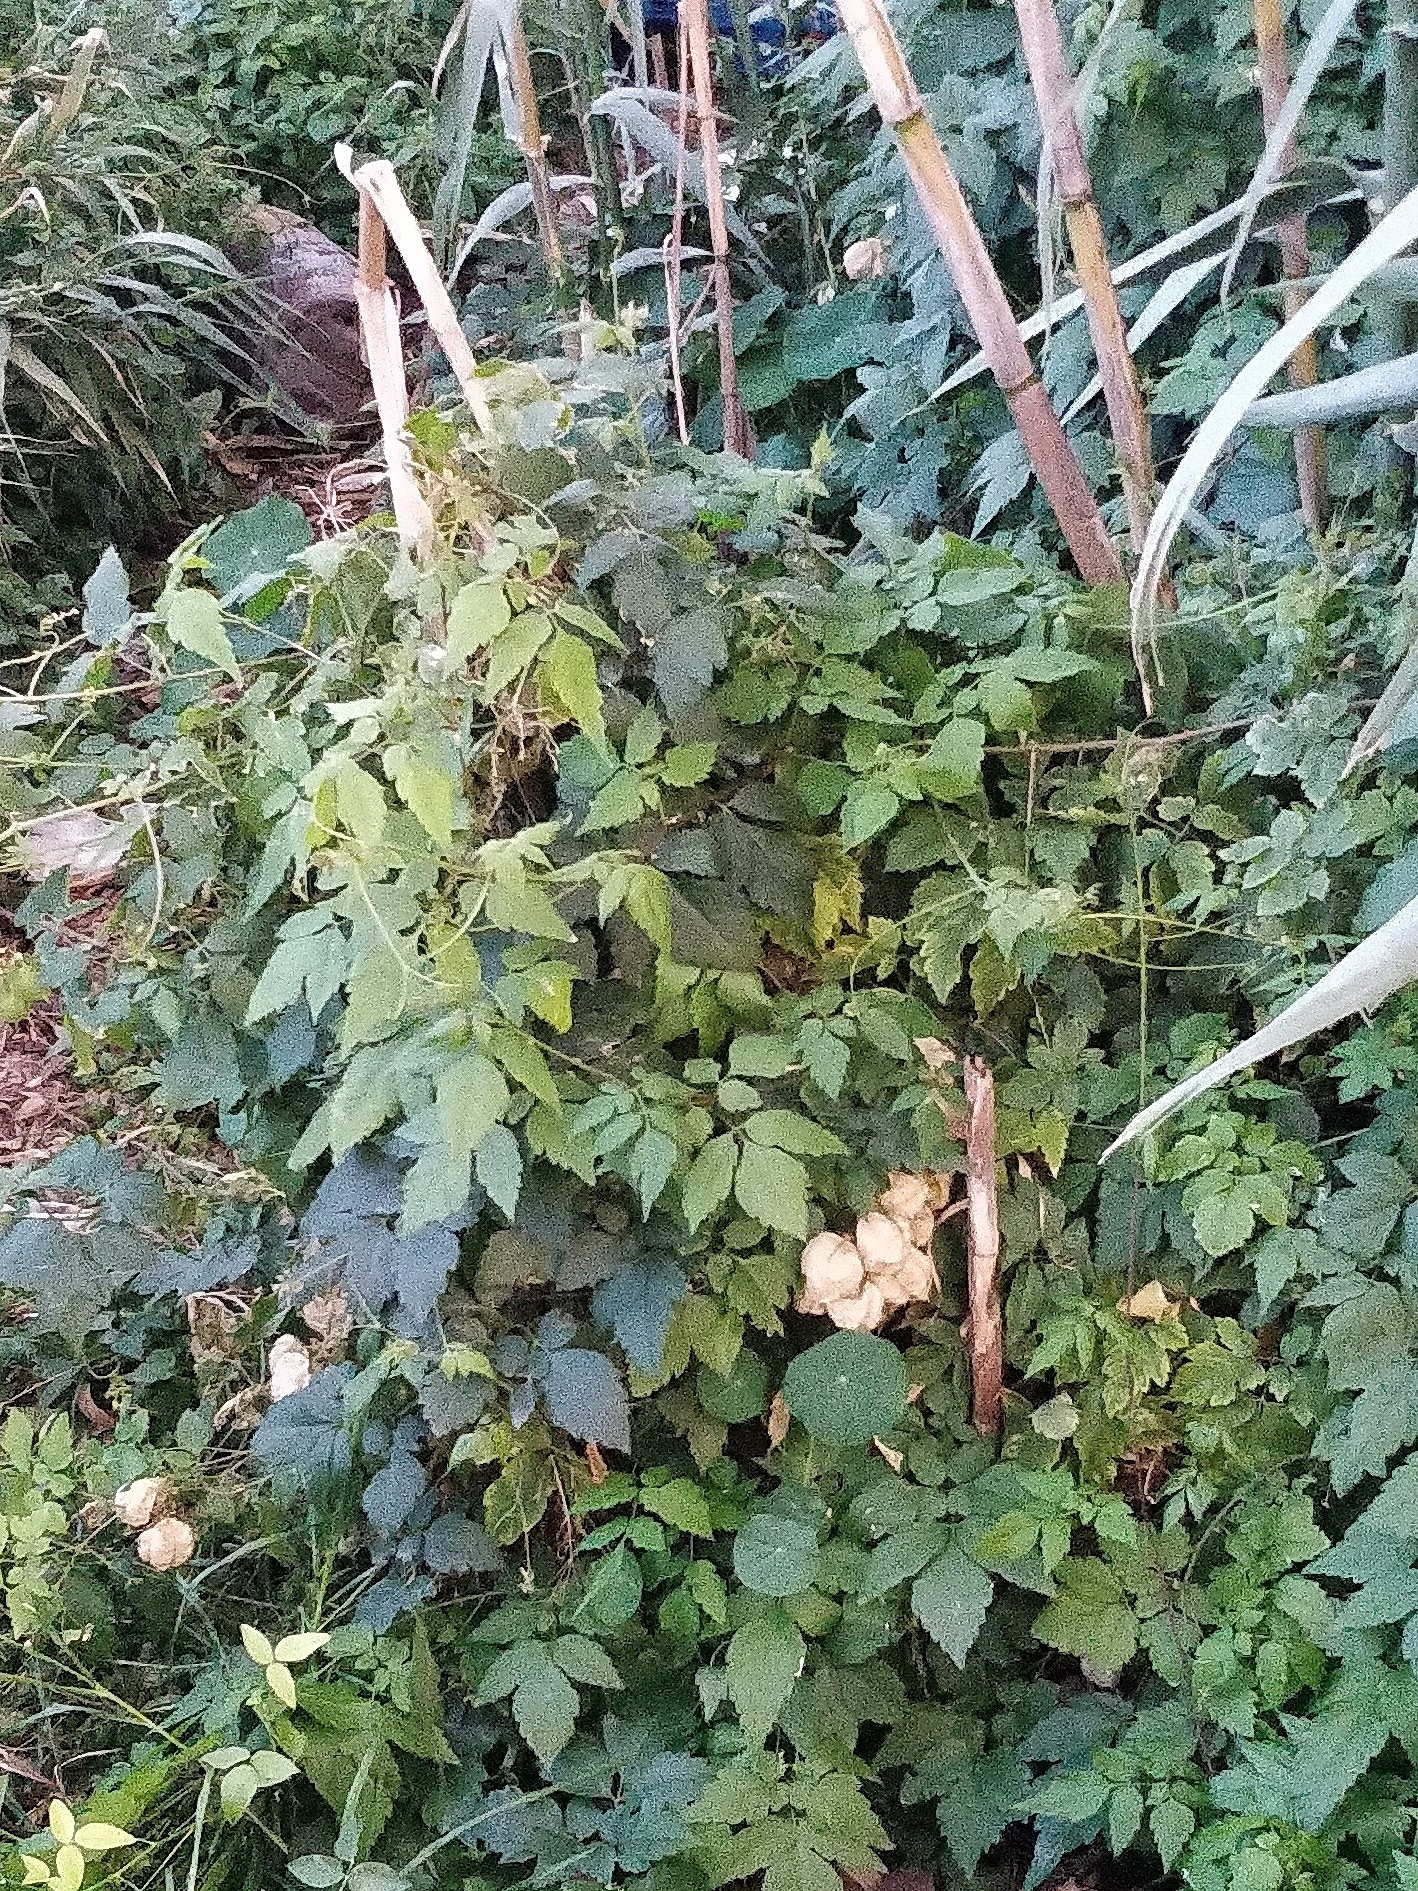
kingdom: Plantae
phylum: Tracheophyta
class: Magnoliopsida
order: Sapindales
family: Sapindaceae
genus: Cardiospermum
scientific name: Cardiospermum grandiflorum
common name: Balloon vine
